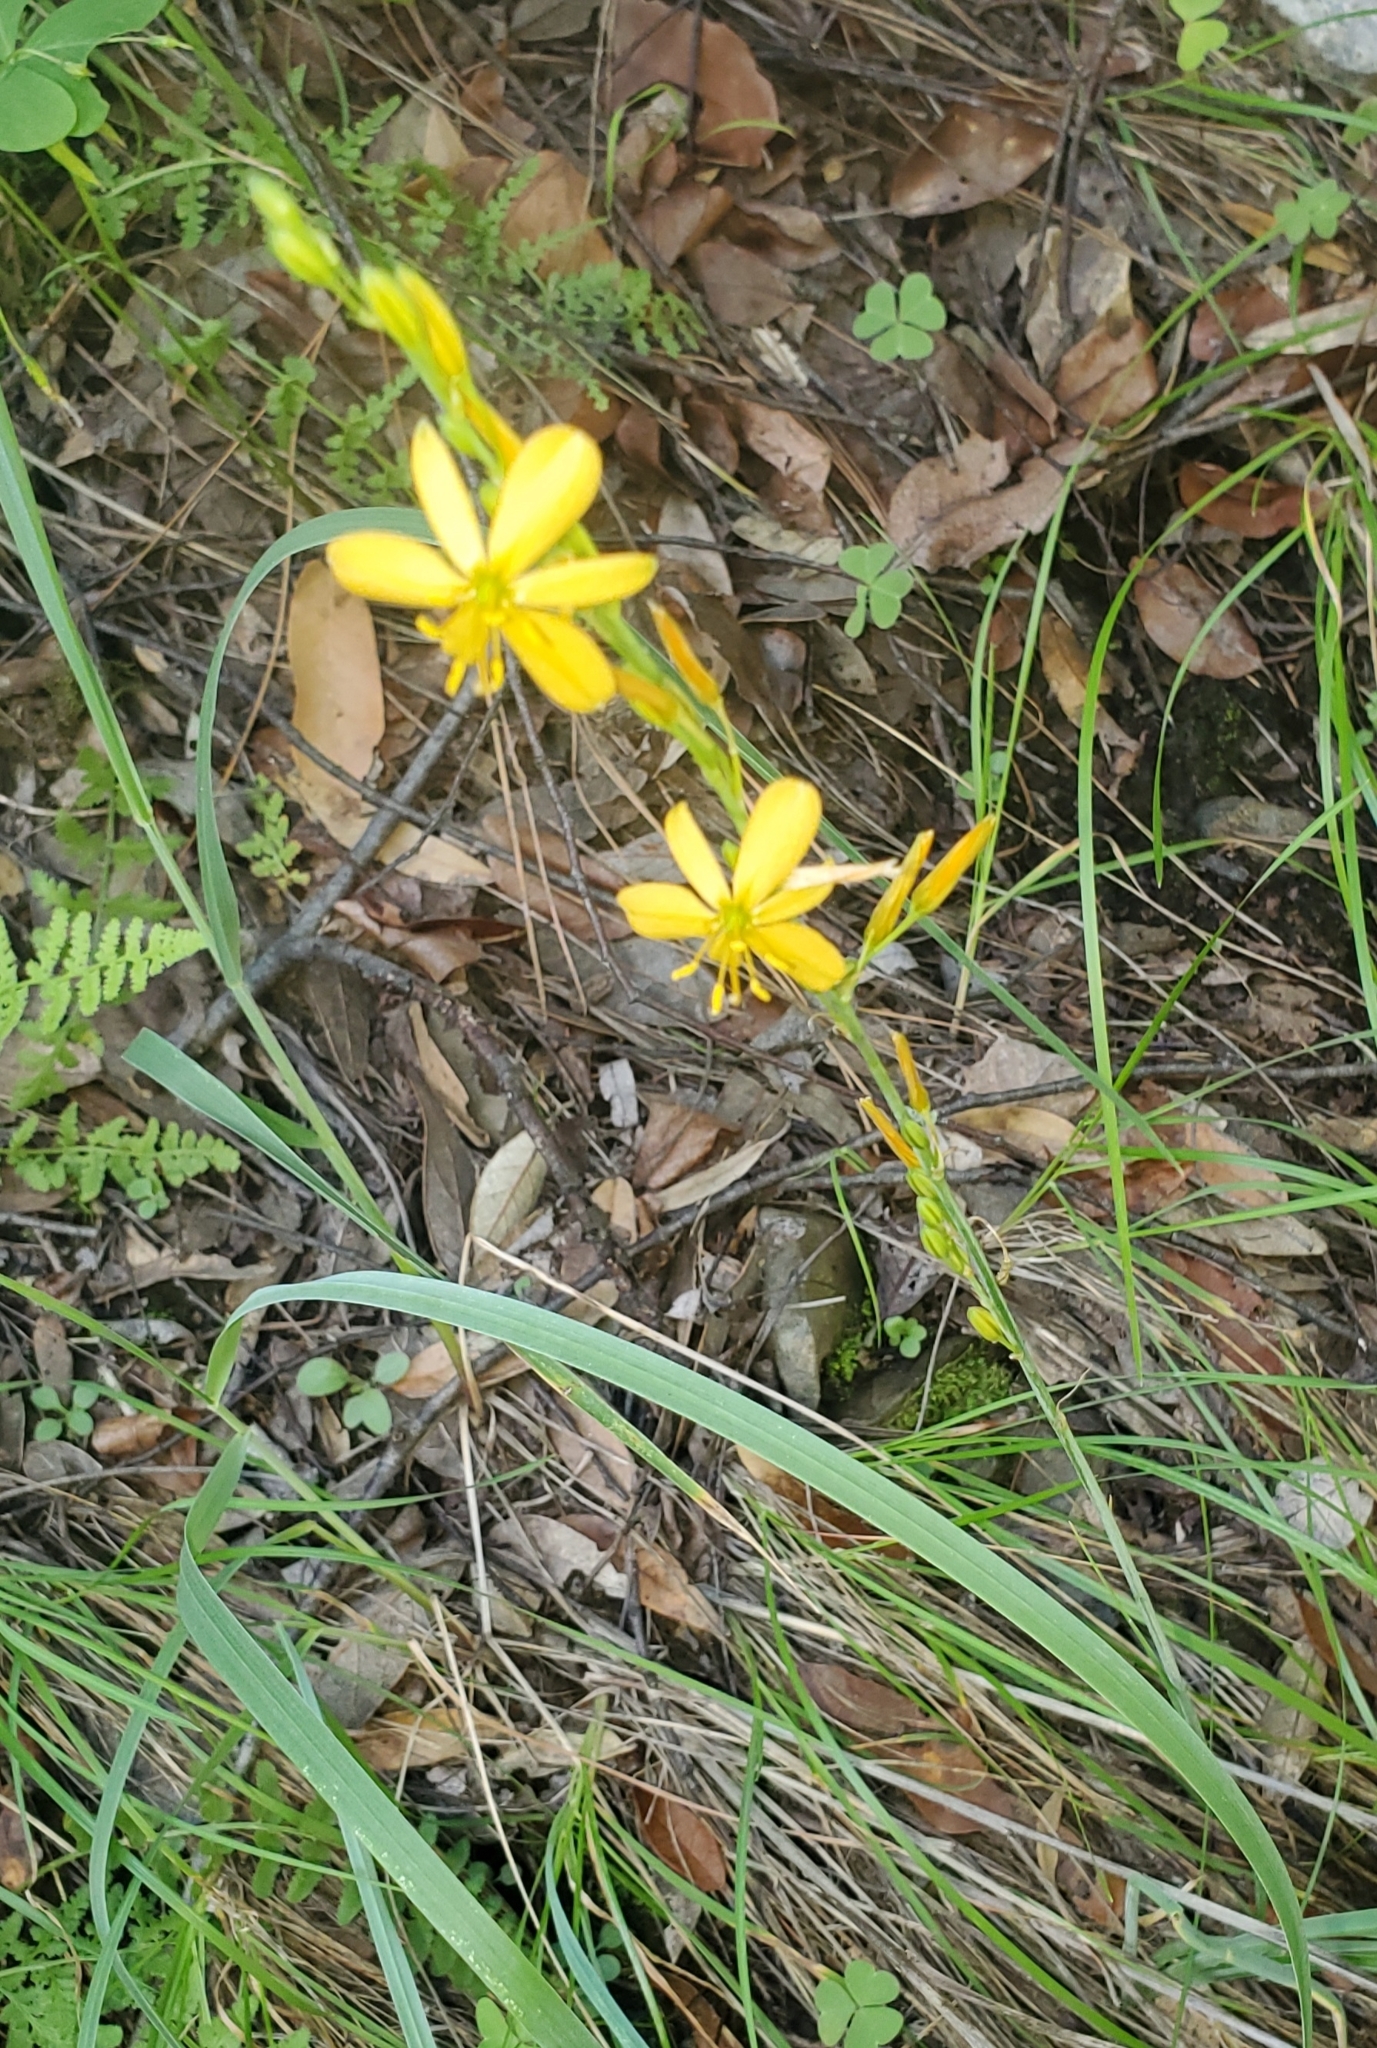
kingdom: Plantae
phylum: Tracheophyta
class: Liliopsida
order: Asparagales
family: Asparagaceae
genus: Echeandia
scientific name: Echeandia flavescens
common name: Amberlily
